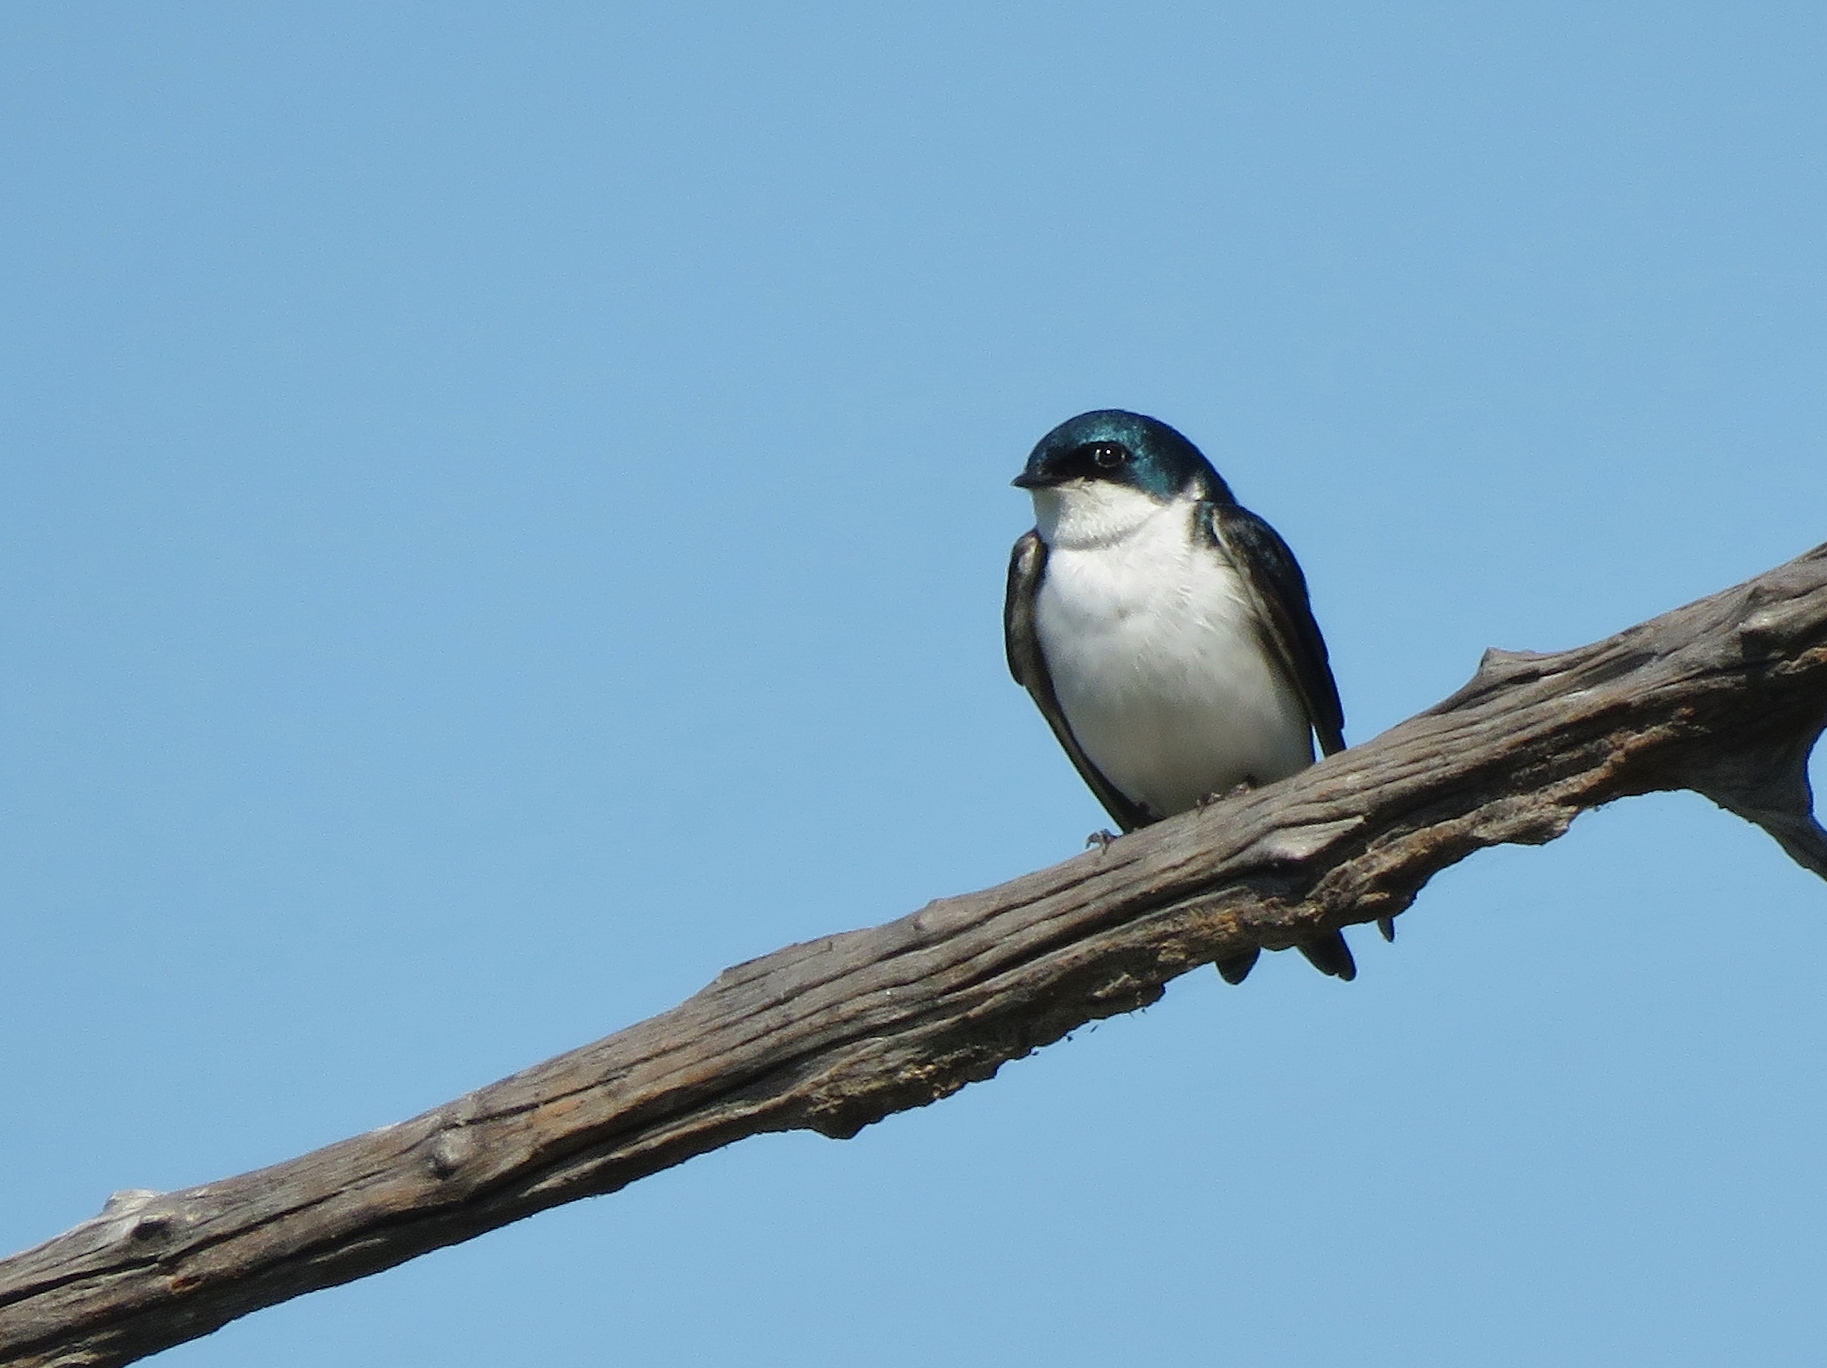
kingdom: Animalia
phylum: Chordata
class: Aves
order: Passeriformes
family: Hirundinidae
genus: Tachycineta
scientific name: Tachycineta bicolor
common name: Tree swallow
